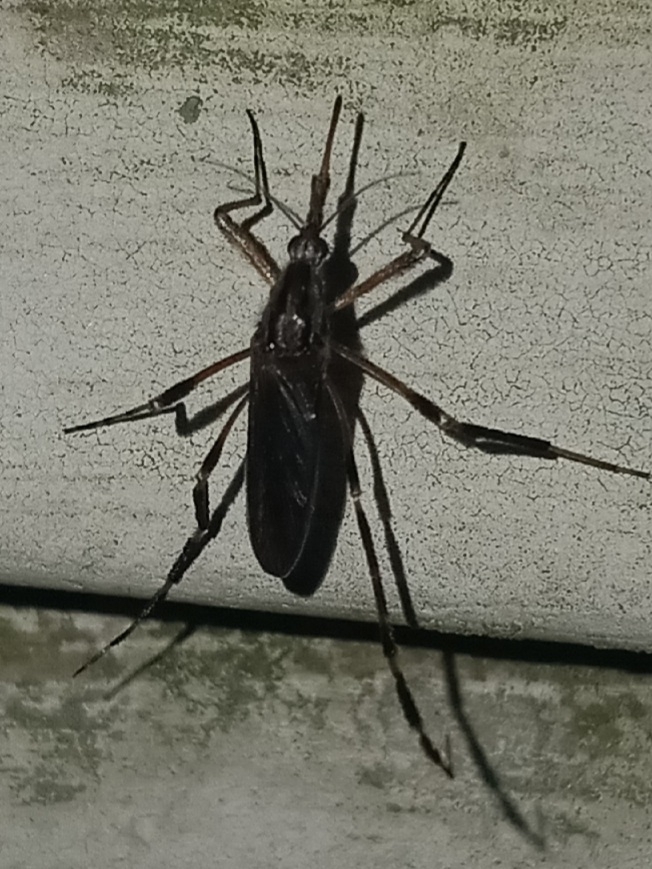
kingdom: Animalia
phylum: Arthropoda
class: Insecta
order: Diptera
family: Culicidae
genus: Psorophora
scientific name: Psorophora ciliata
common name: Gallinipper
